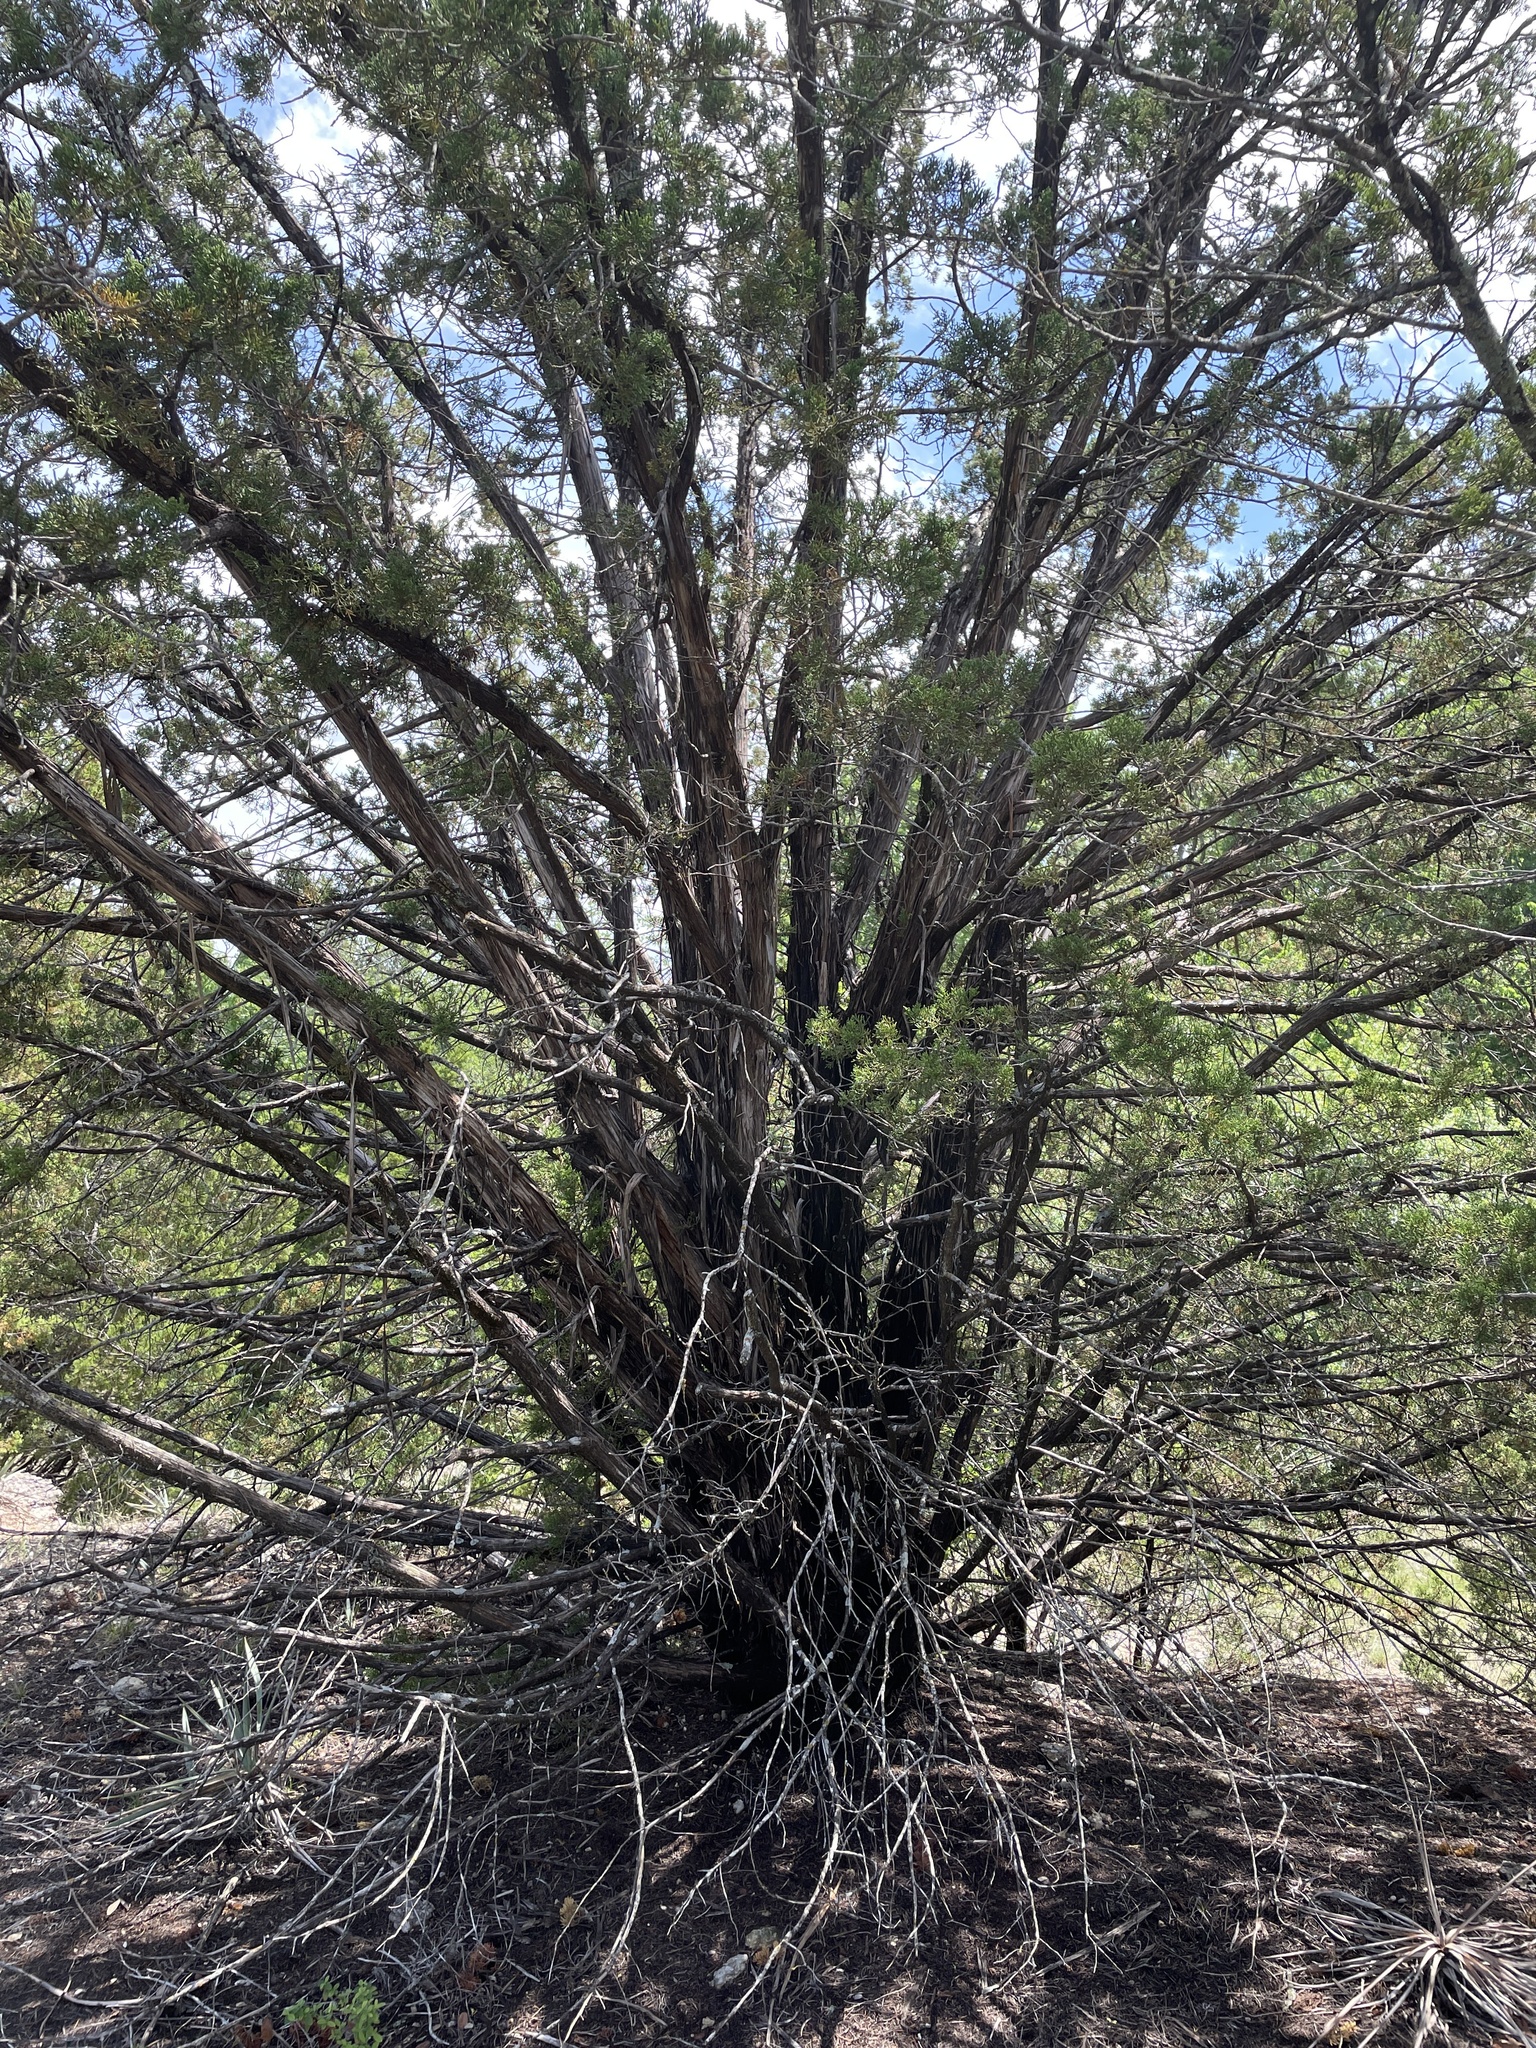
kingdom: Plantae
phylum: Tracheophyta
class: Pinopsida
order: Pinales
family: Cupressaceae
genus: Juniperus
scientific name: Juniperus ashei
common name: Mexican juniper
